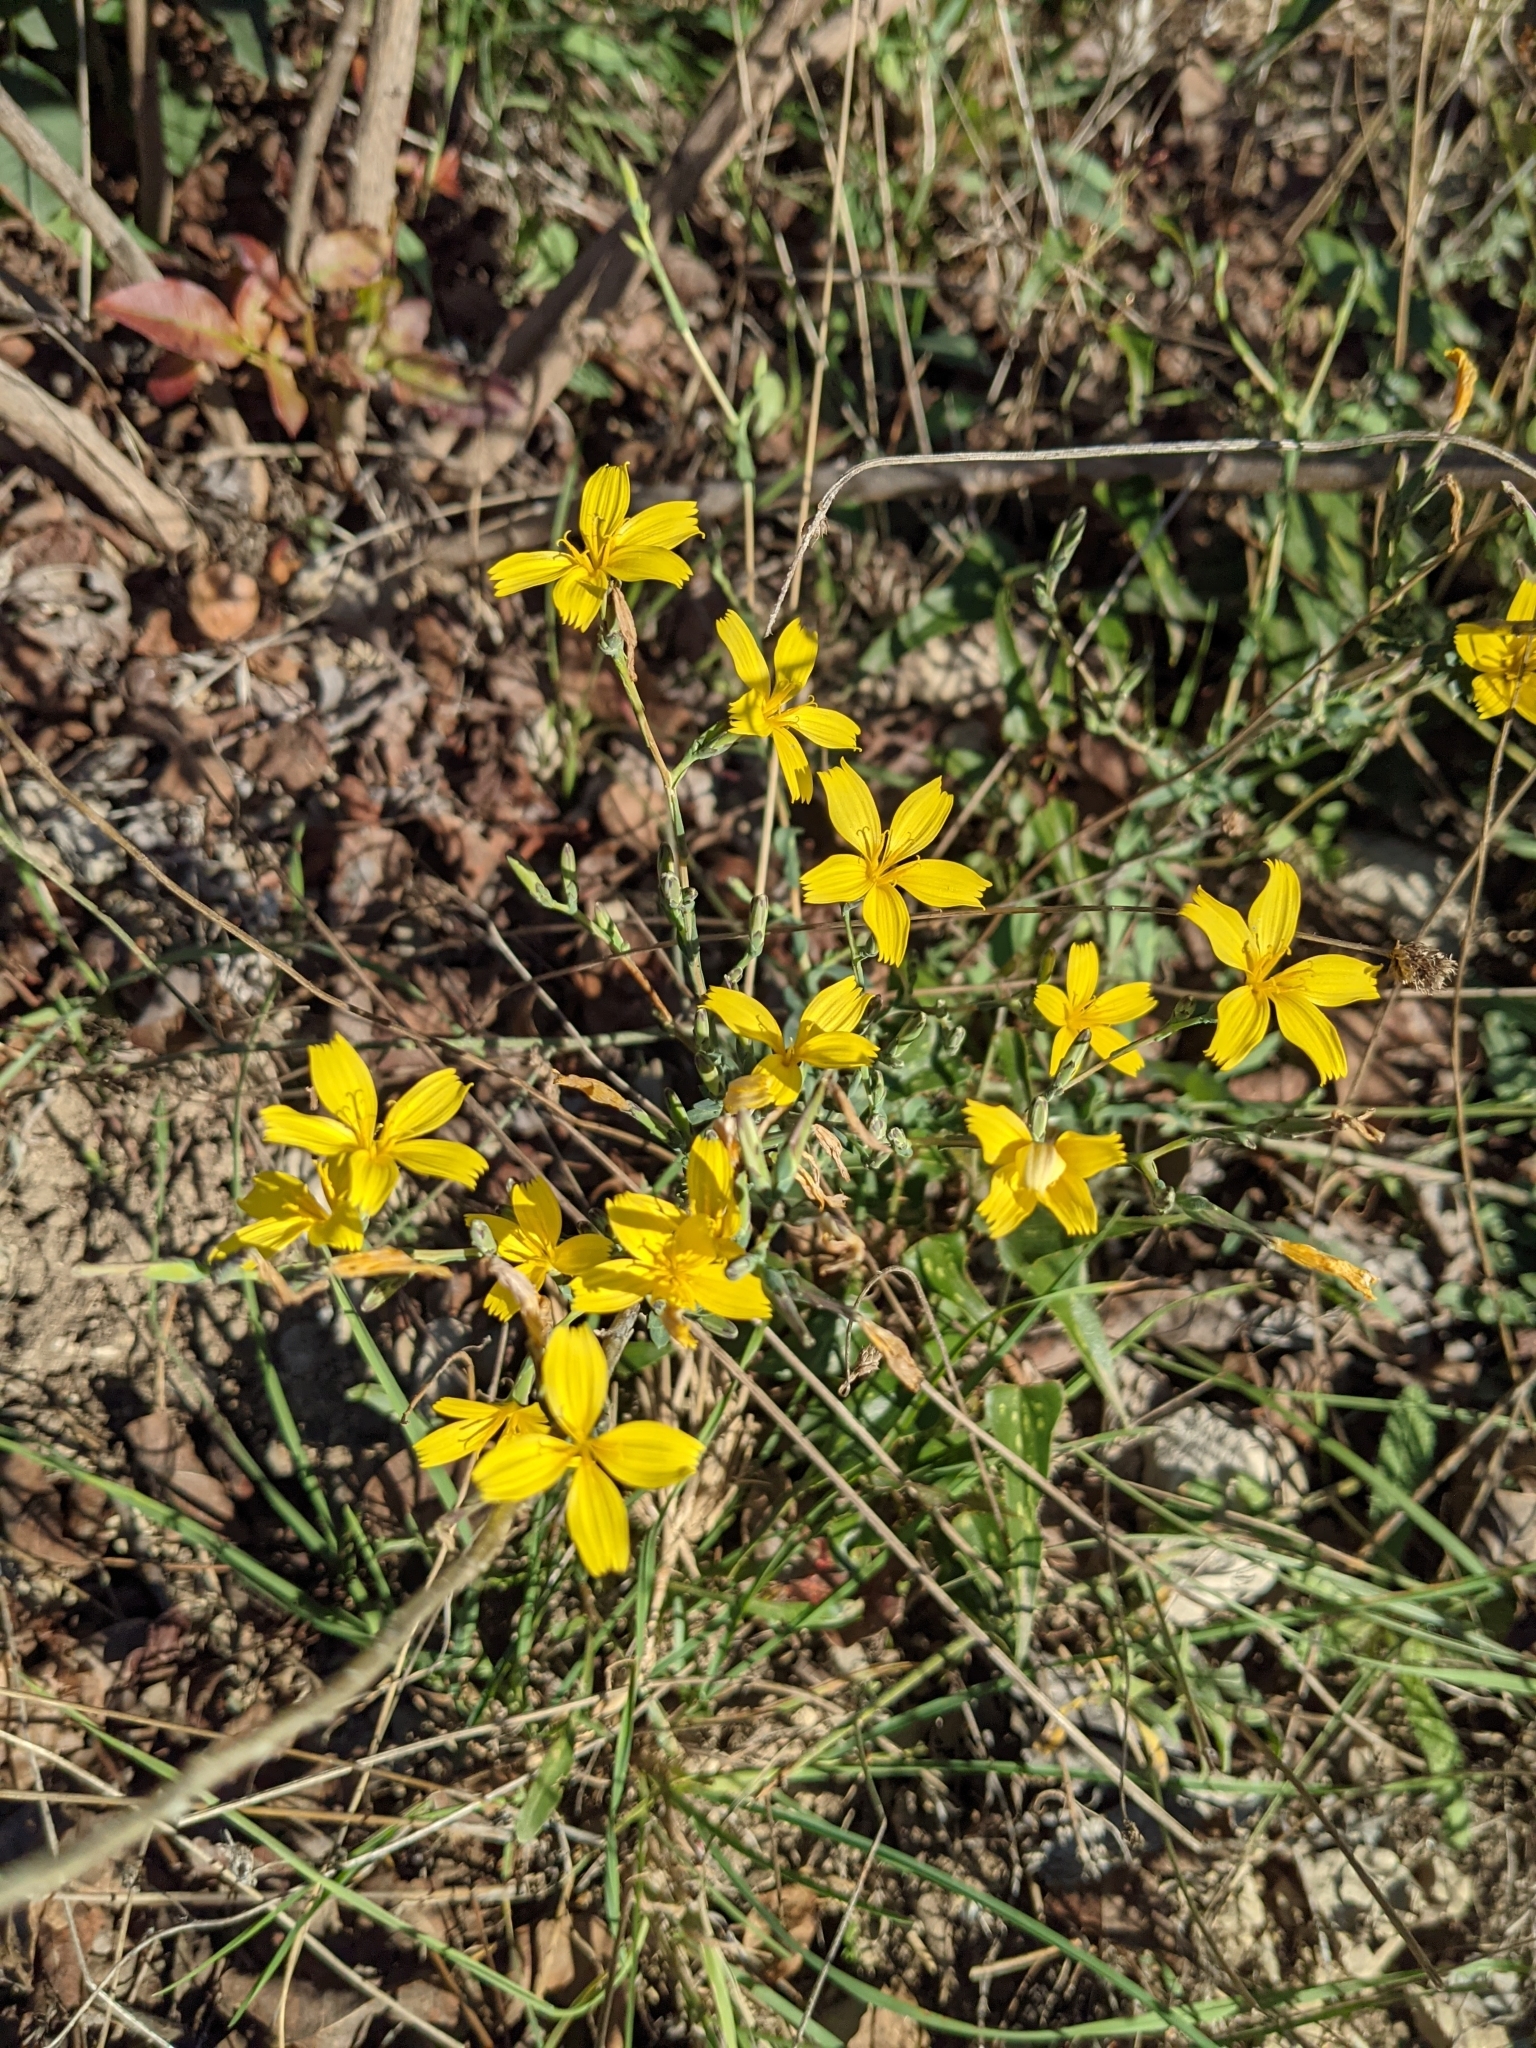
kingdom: Plantae
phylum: Tracheophyta
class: Magnoliopsida
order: Asterales
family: Asteraceae
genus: Lactuca
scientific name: Lactuca viminea
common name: Pliant lettuce
